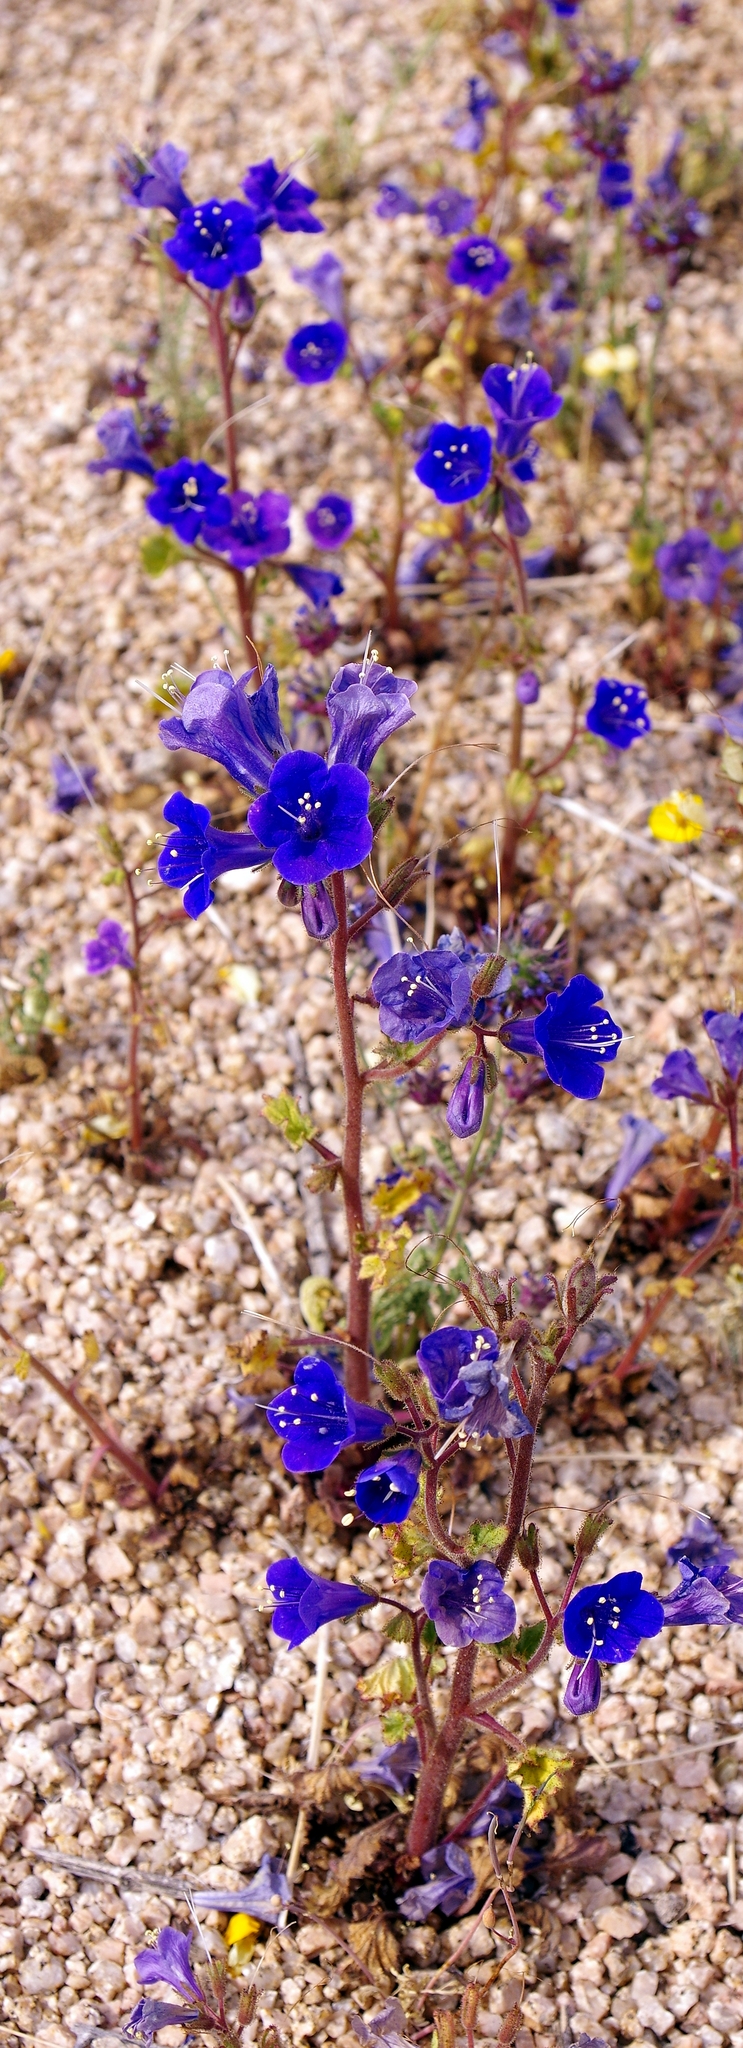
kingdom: Plantae
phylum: Tracheophyta
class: Magnoliopsida
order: Boraginales
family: Hydrophyllaceae
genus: Phacelia
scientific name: Phacelia campanularia
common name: California bluebell
